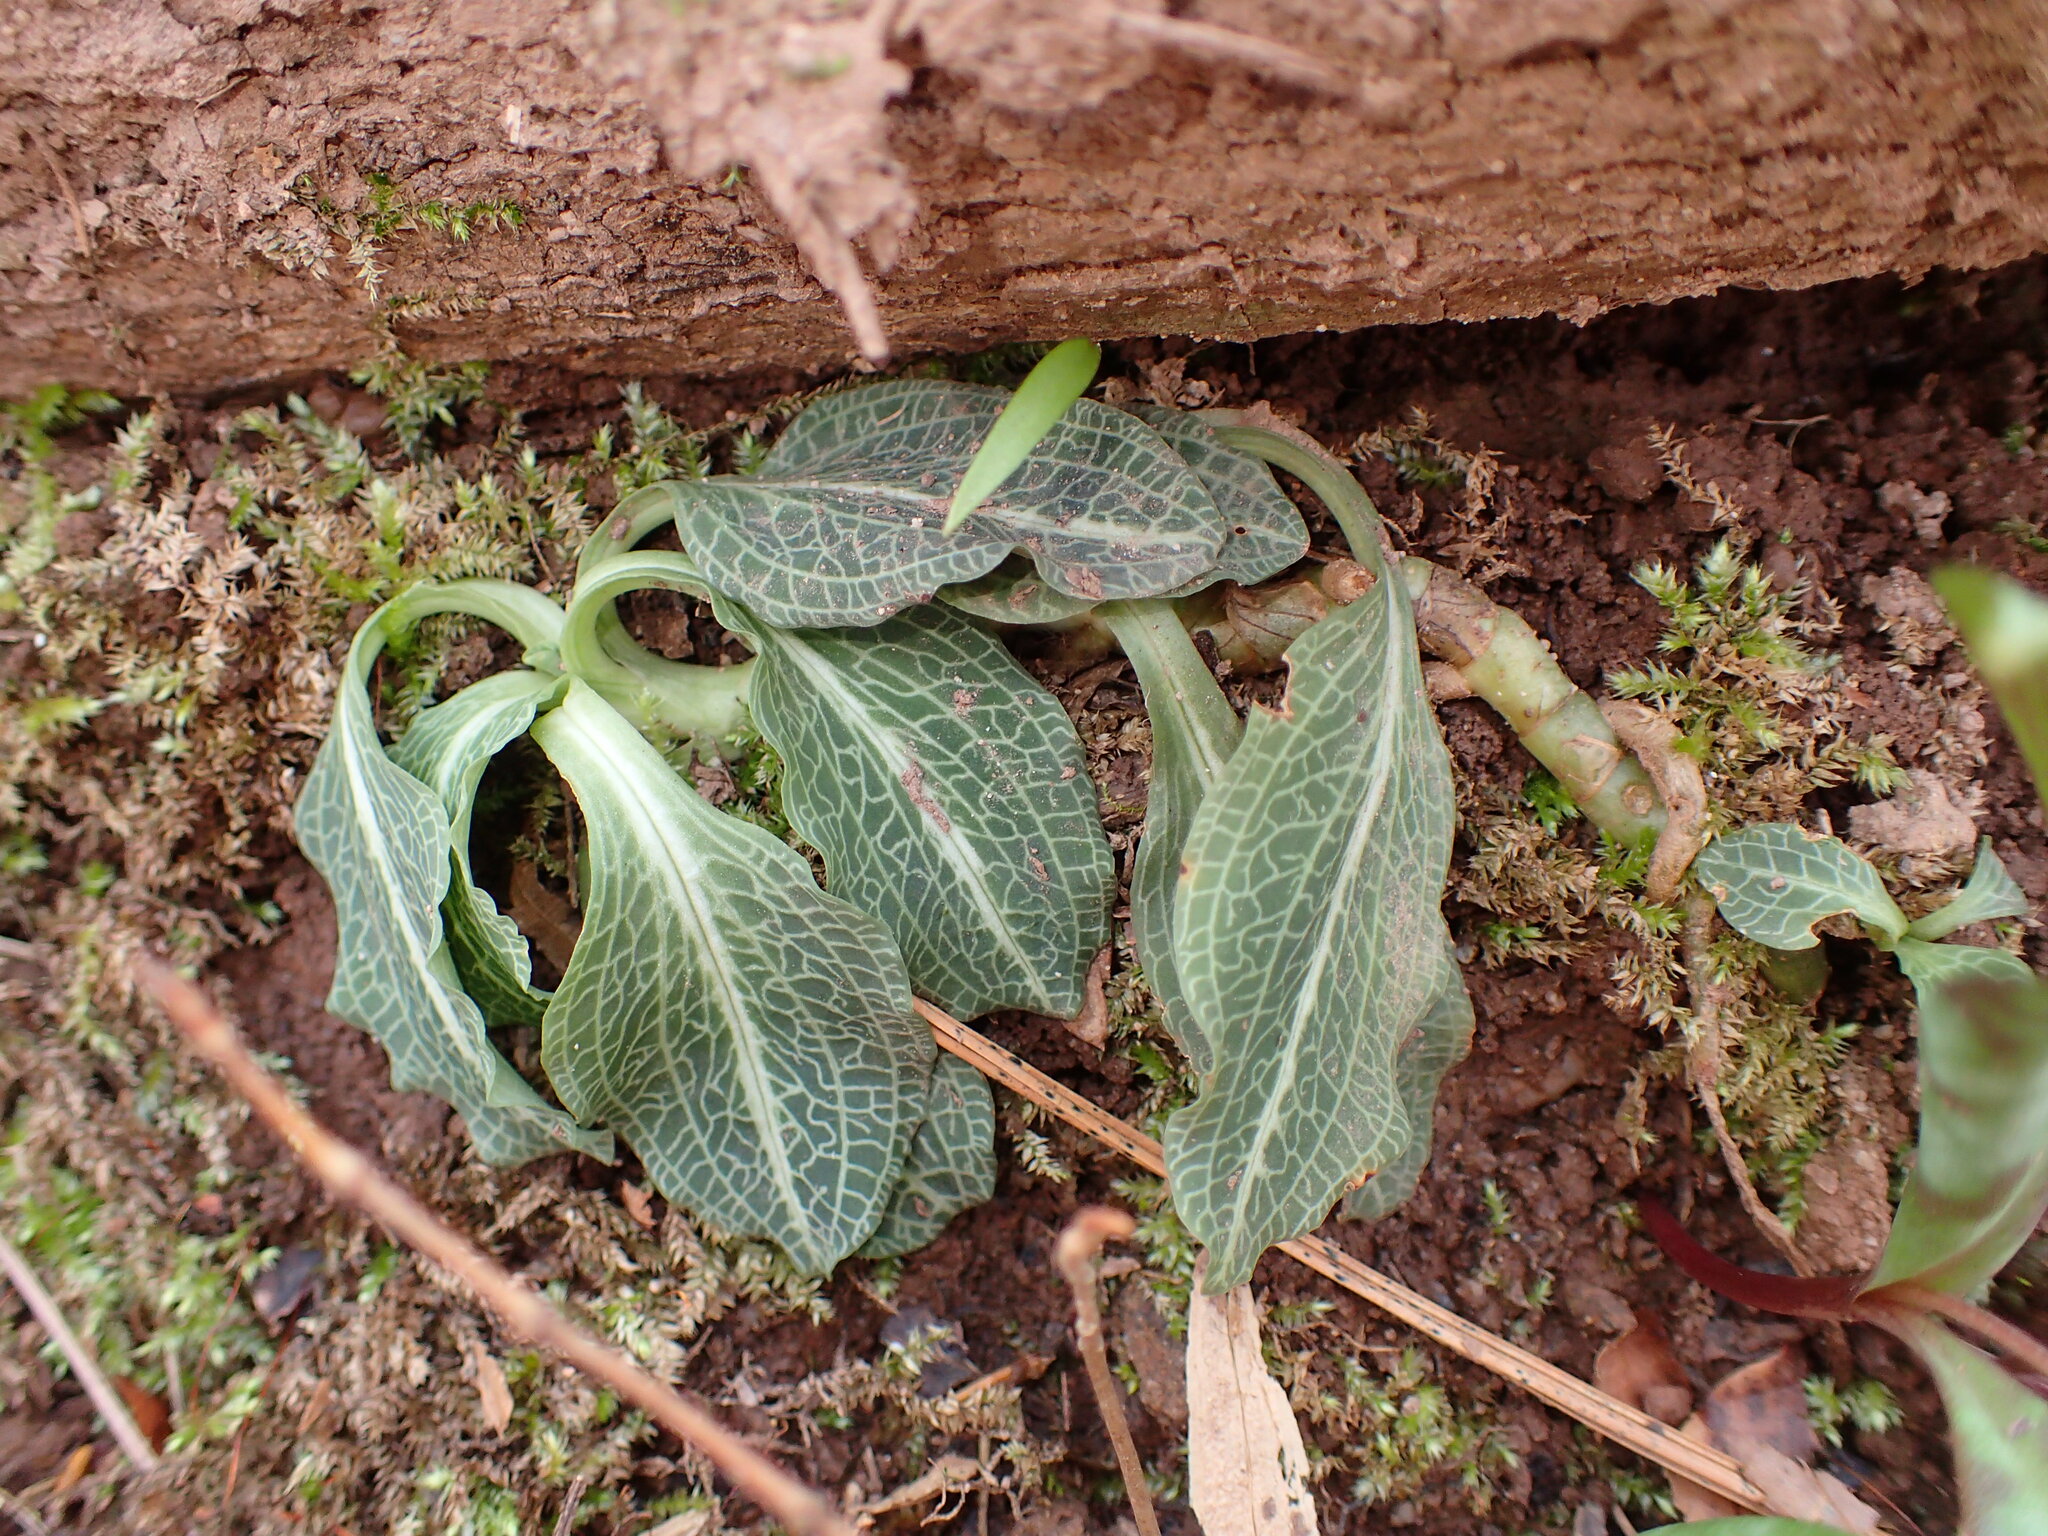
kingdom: Plantae
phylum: Tracheophyta
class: Liliopsida
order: Asparagales
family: Orchidaceae
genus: Goodyera
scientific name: Goodyera pubescens
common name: Downy rattlesnake-plantain
